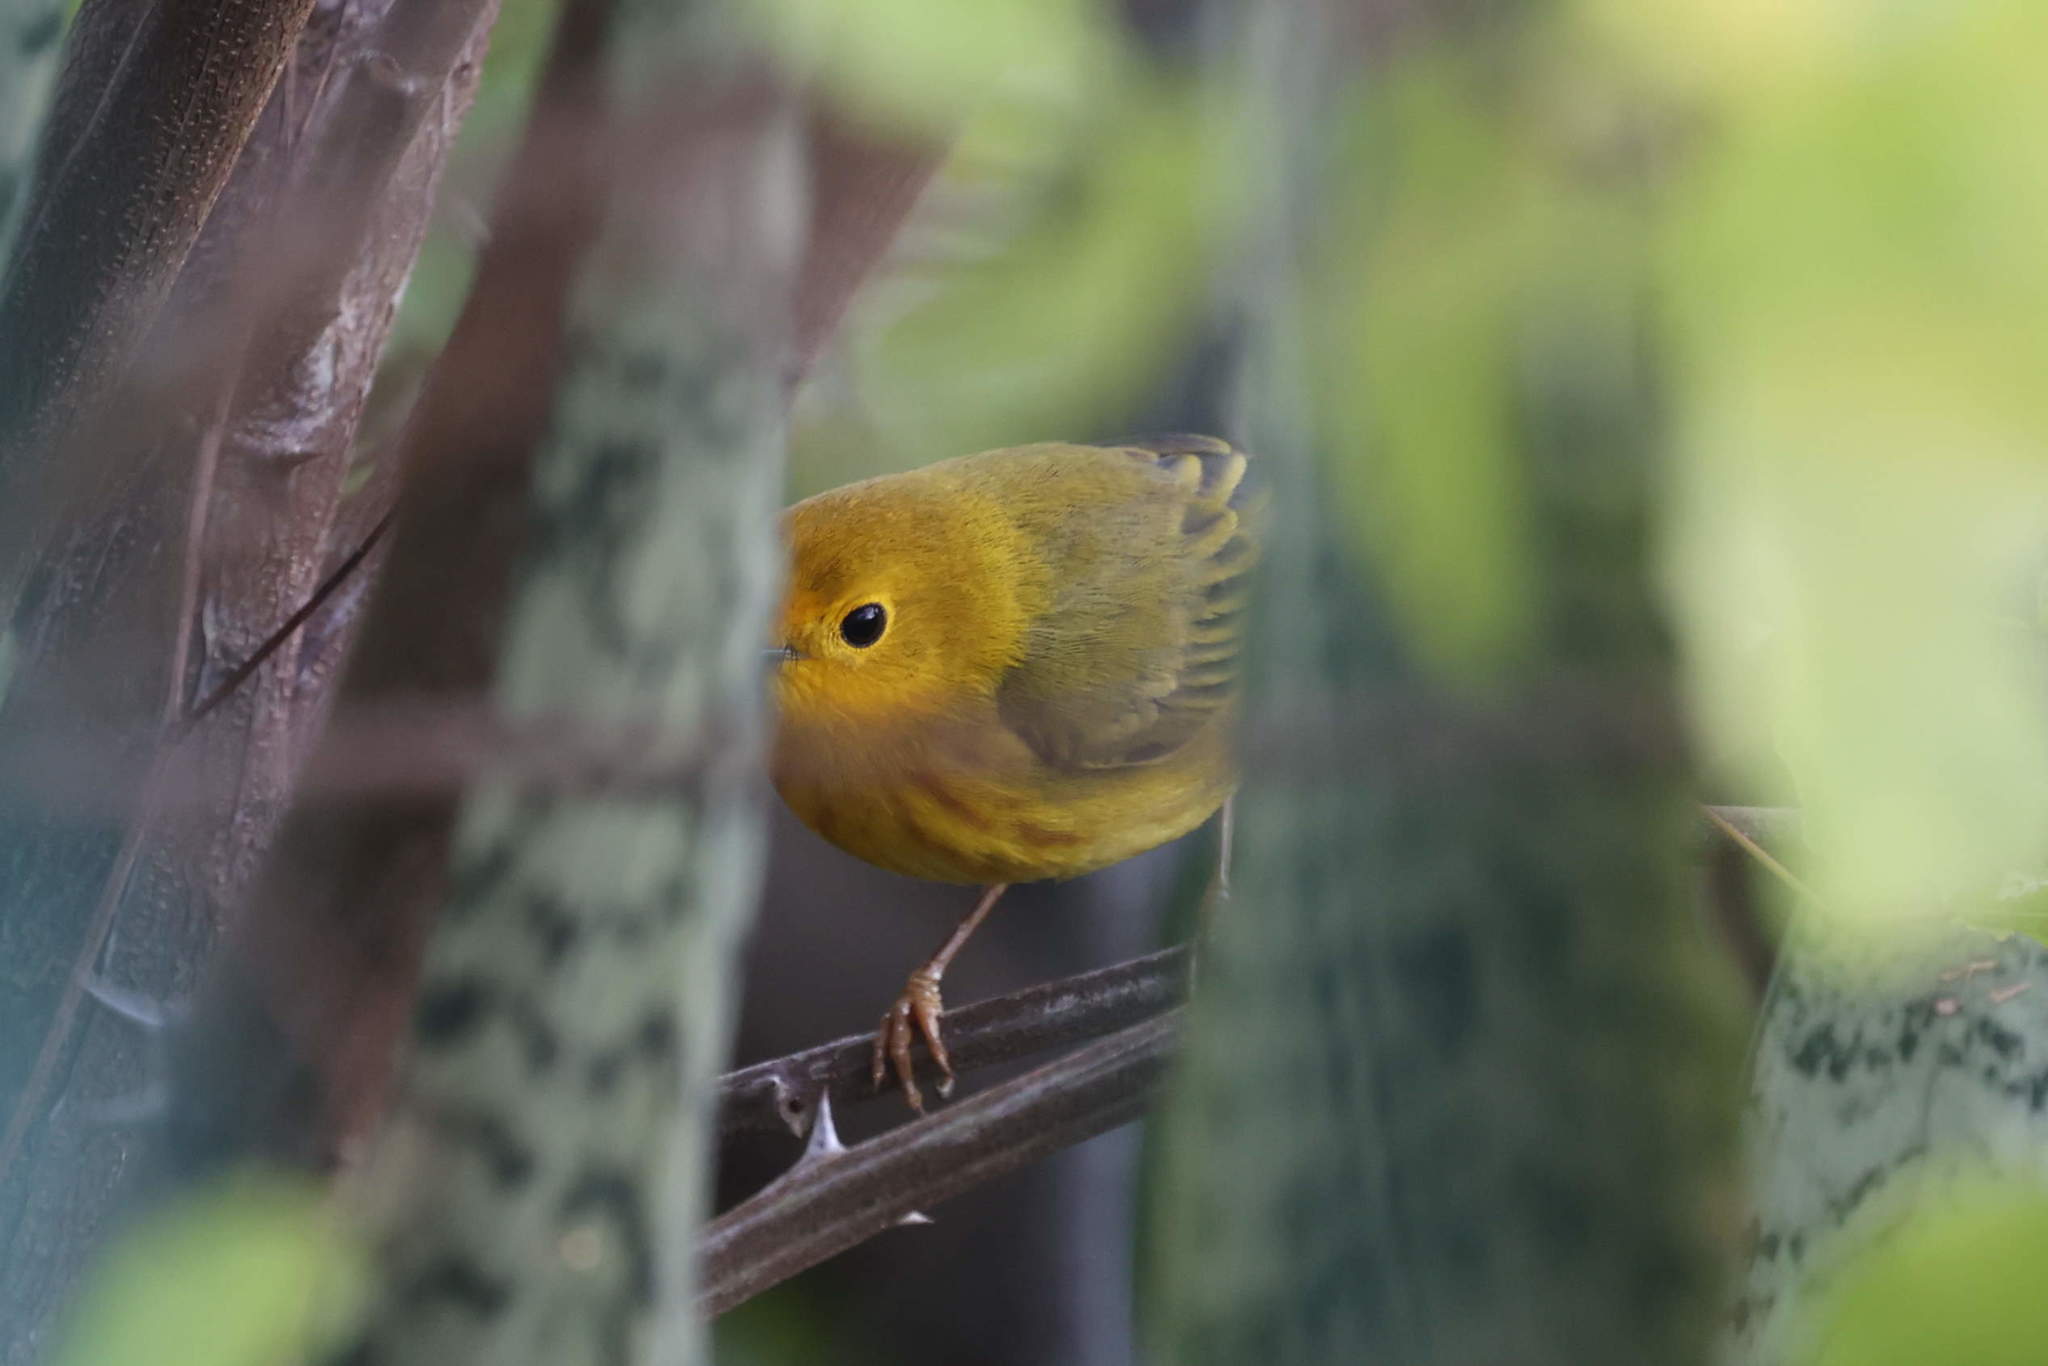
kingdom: Animalia
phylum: Chordata
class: Aves
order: Passeriformes
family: Parulidae
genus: Setophaga
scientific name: Setophaga petechia
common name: Yellow warbler
